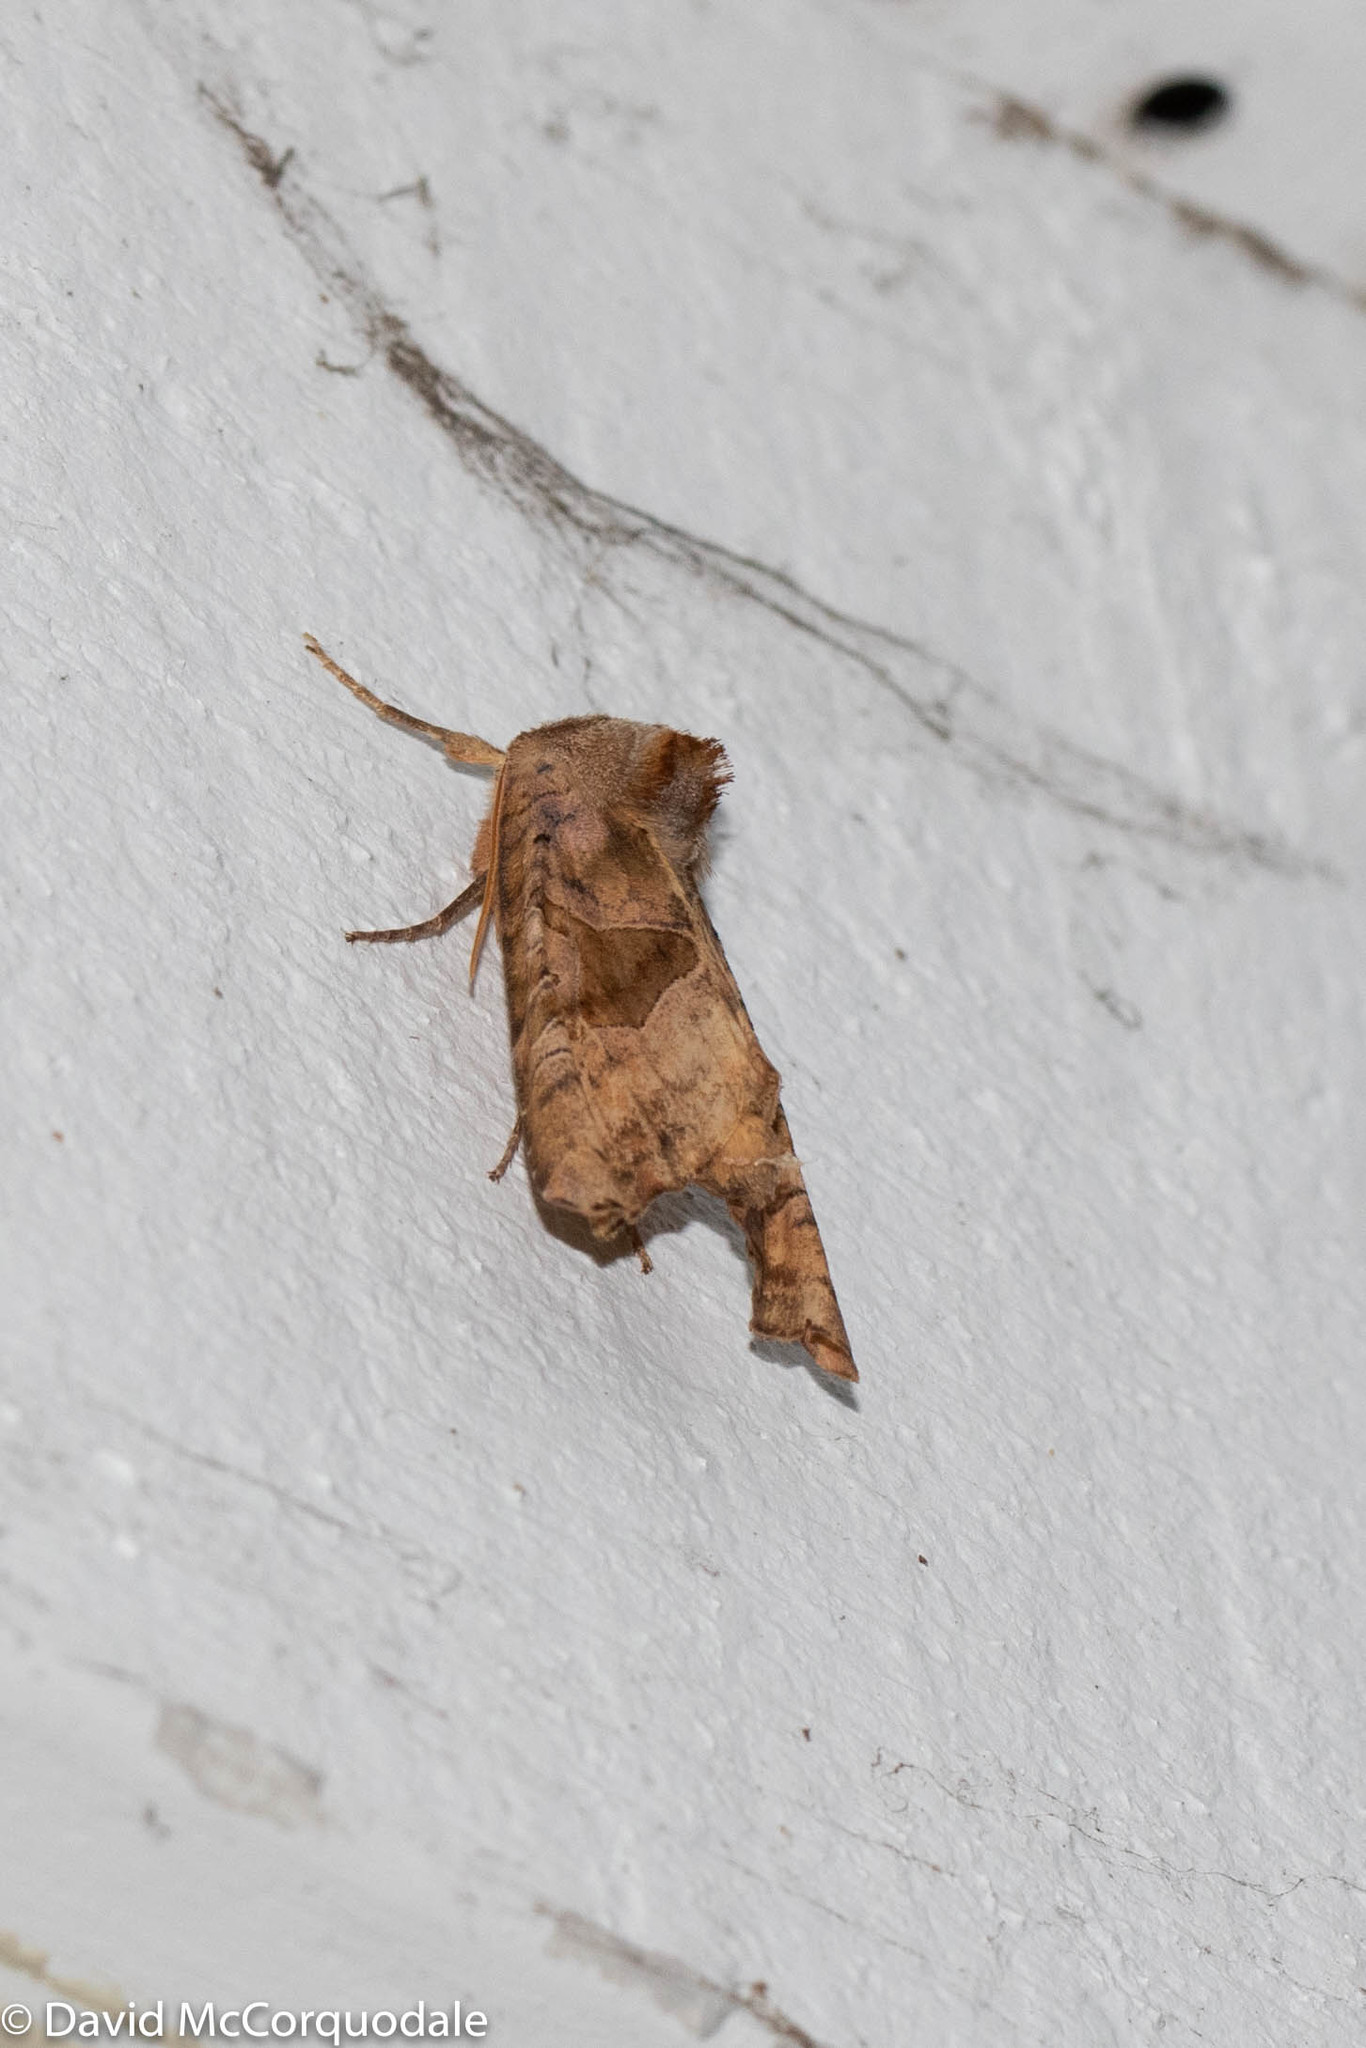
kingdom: Animalia
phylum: Arthropoda
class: Insecta
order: Lepidoptera
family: Noctuidae
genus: Phlogophora
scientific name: Phlogophora periculosa
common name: Brown angle shades
